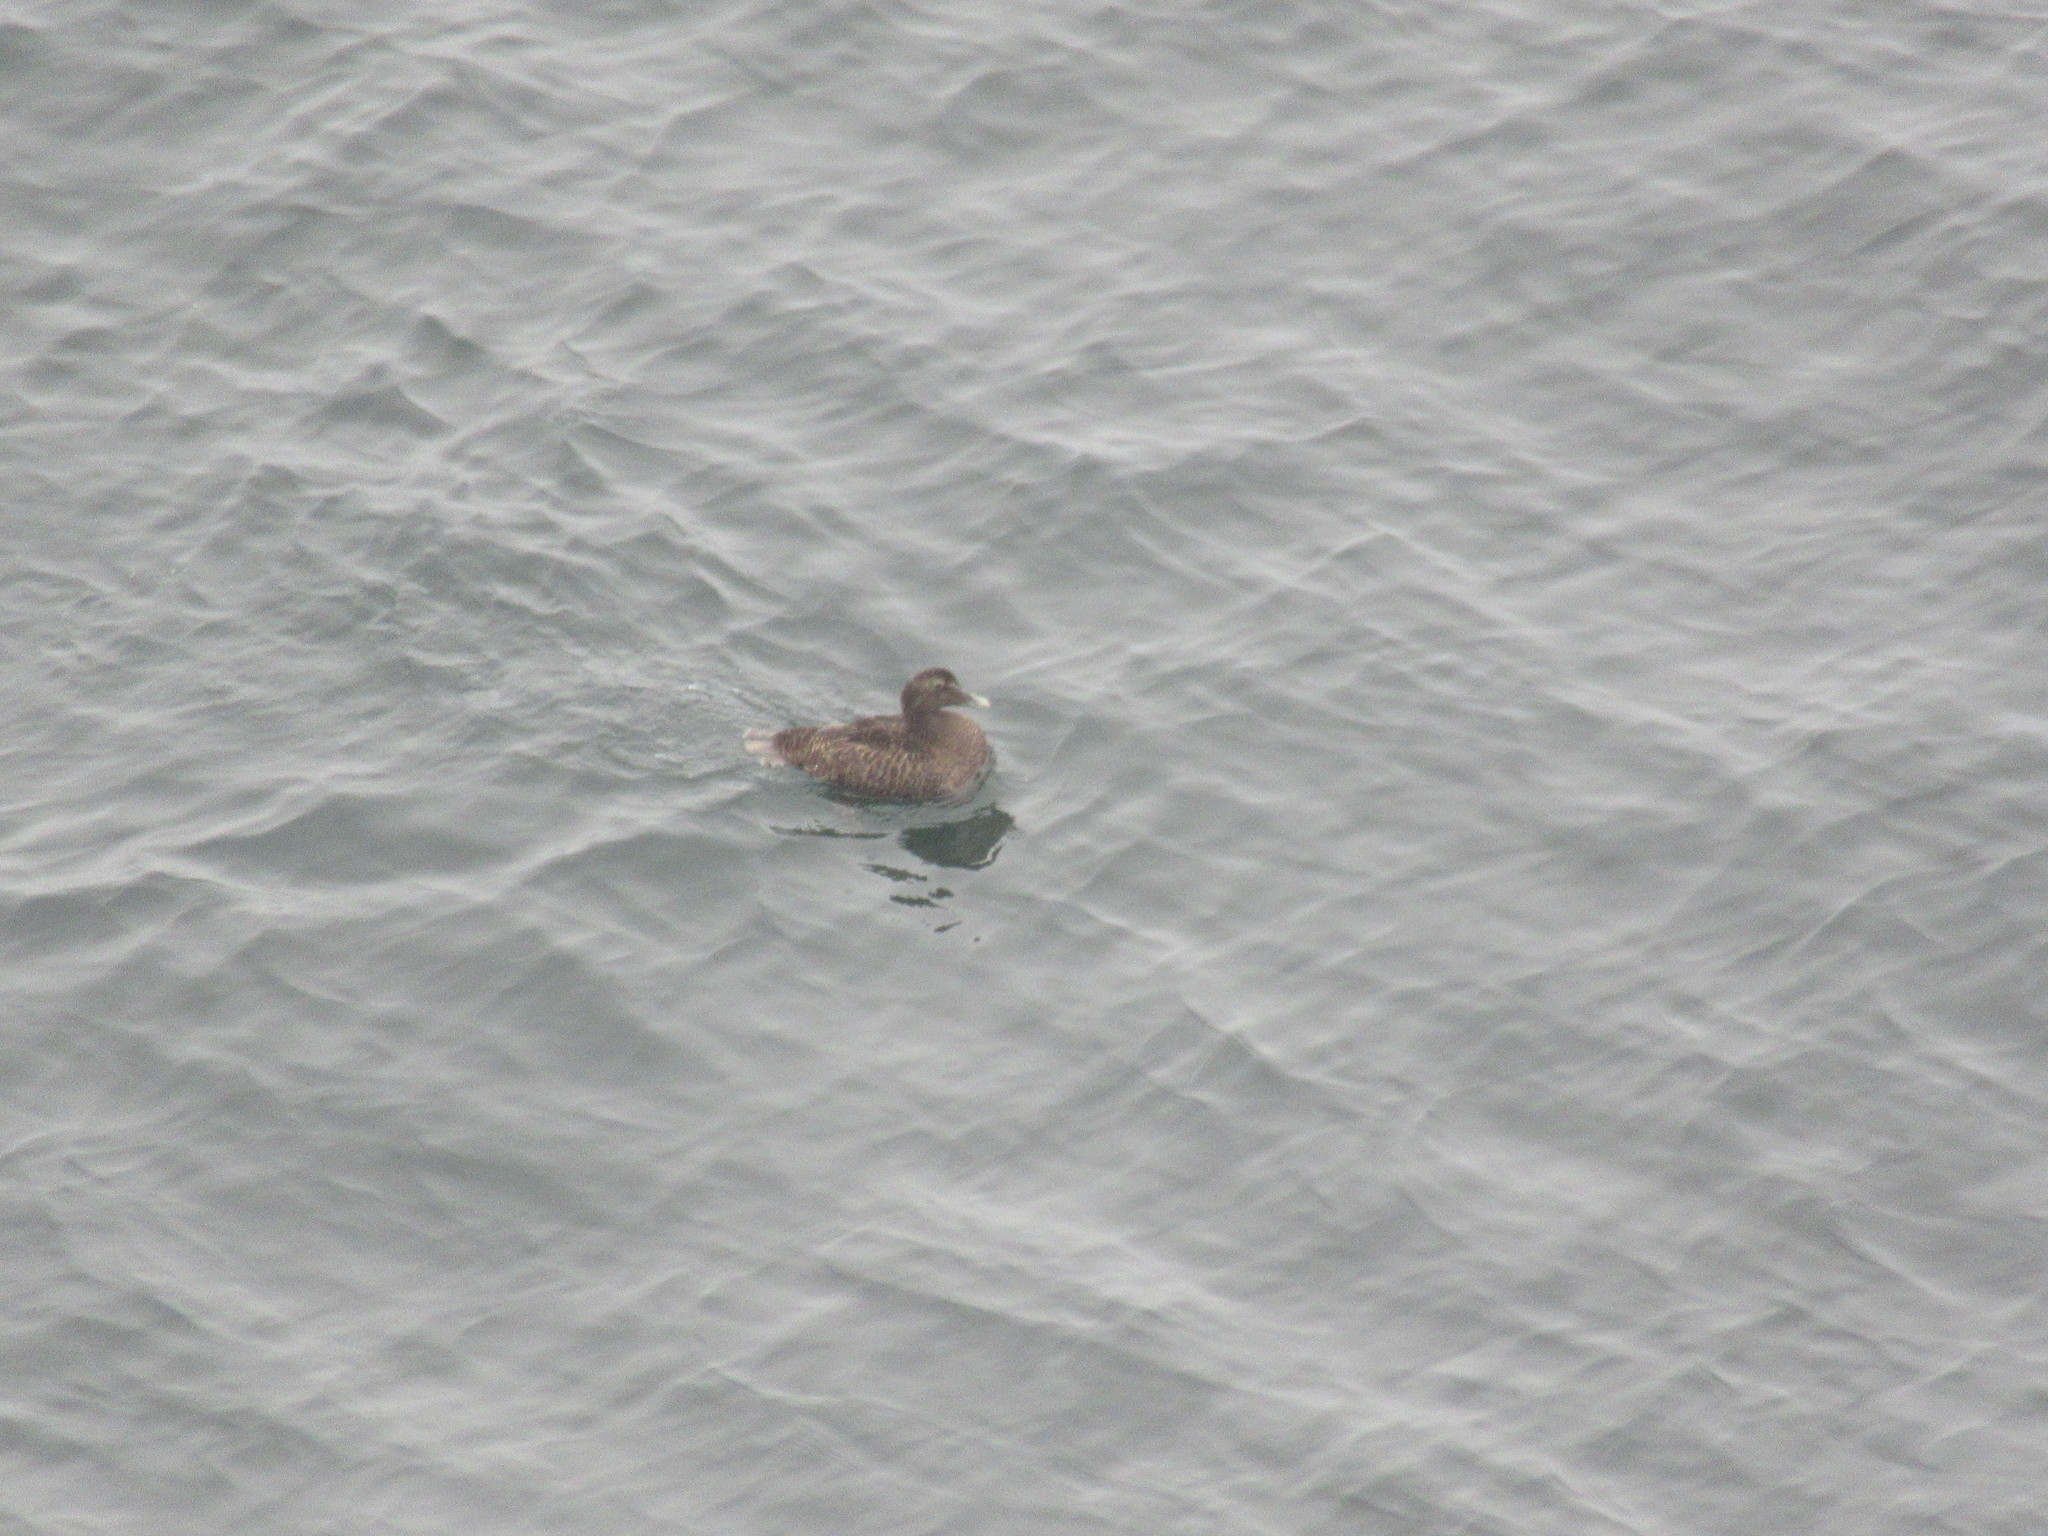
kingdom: Animalia
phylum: Chordata
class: Aves
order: Anseriformes
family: Anatidae
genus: Somateria
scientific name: Somateria mollissima
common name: Common eider
